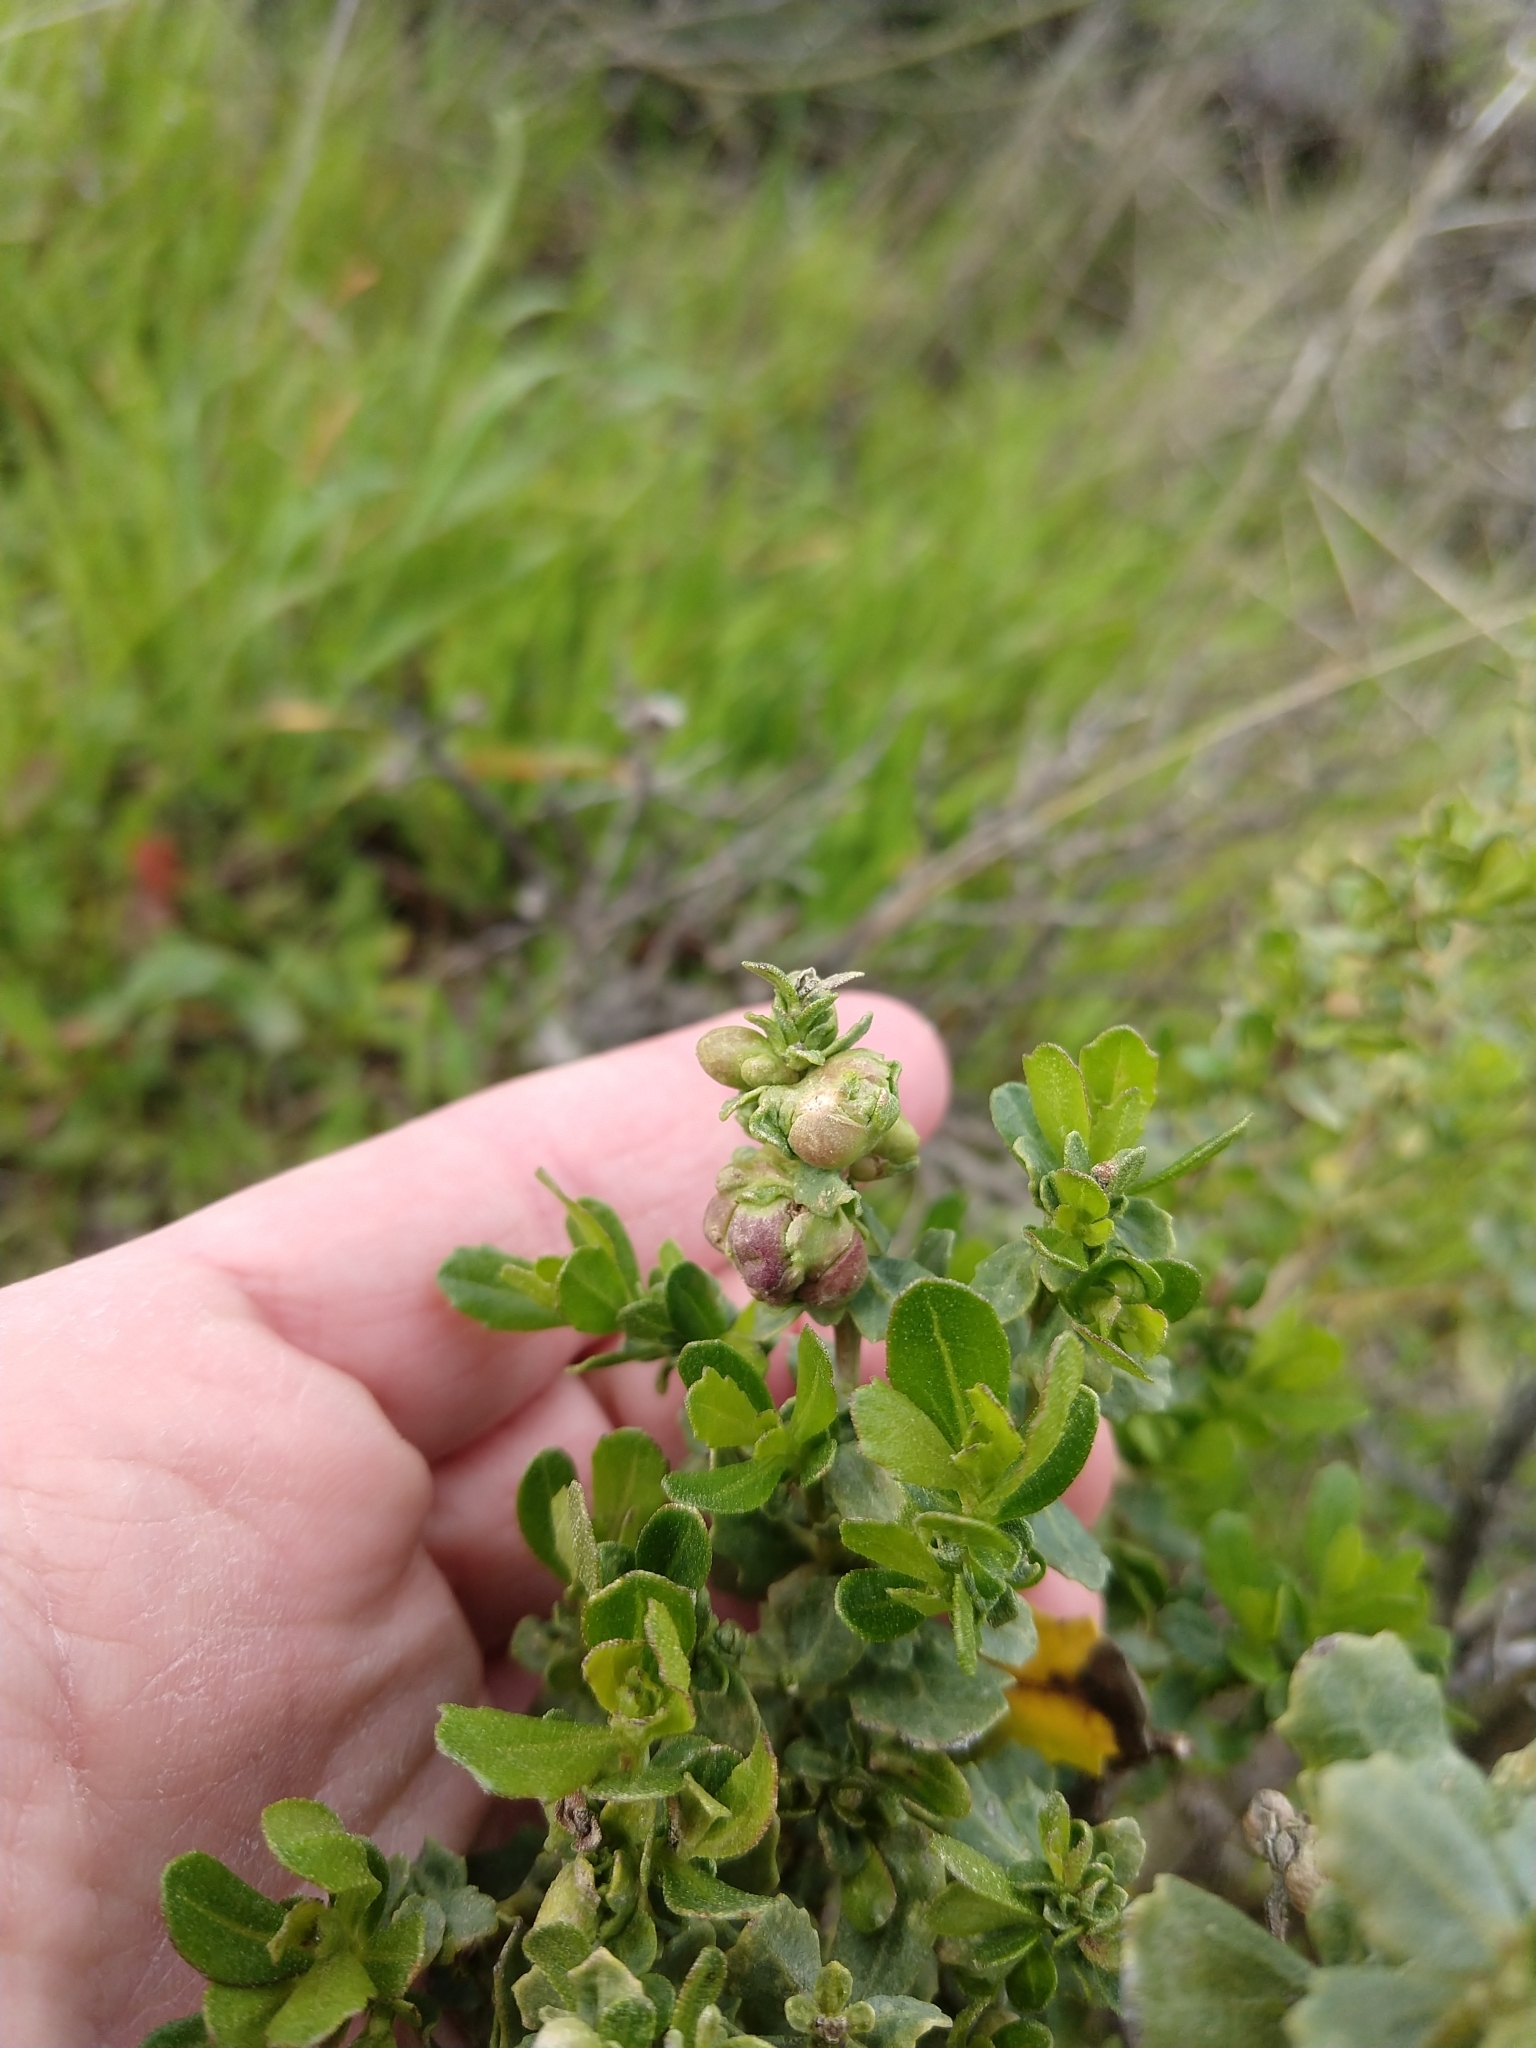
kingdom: Animalia
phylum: Arthropoda
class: Insecta
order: Diptera
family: Cecidomyiidae
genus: Rhopalomyia
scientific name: Rhopalomyia californica
